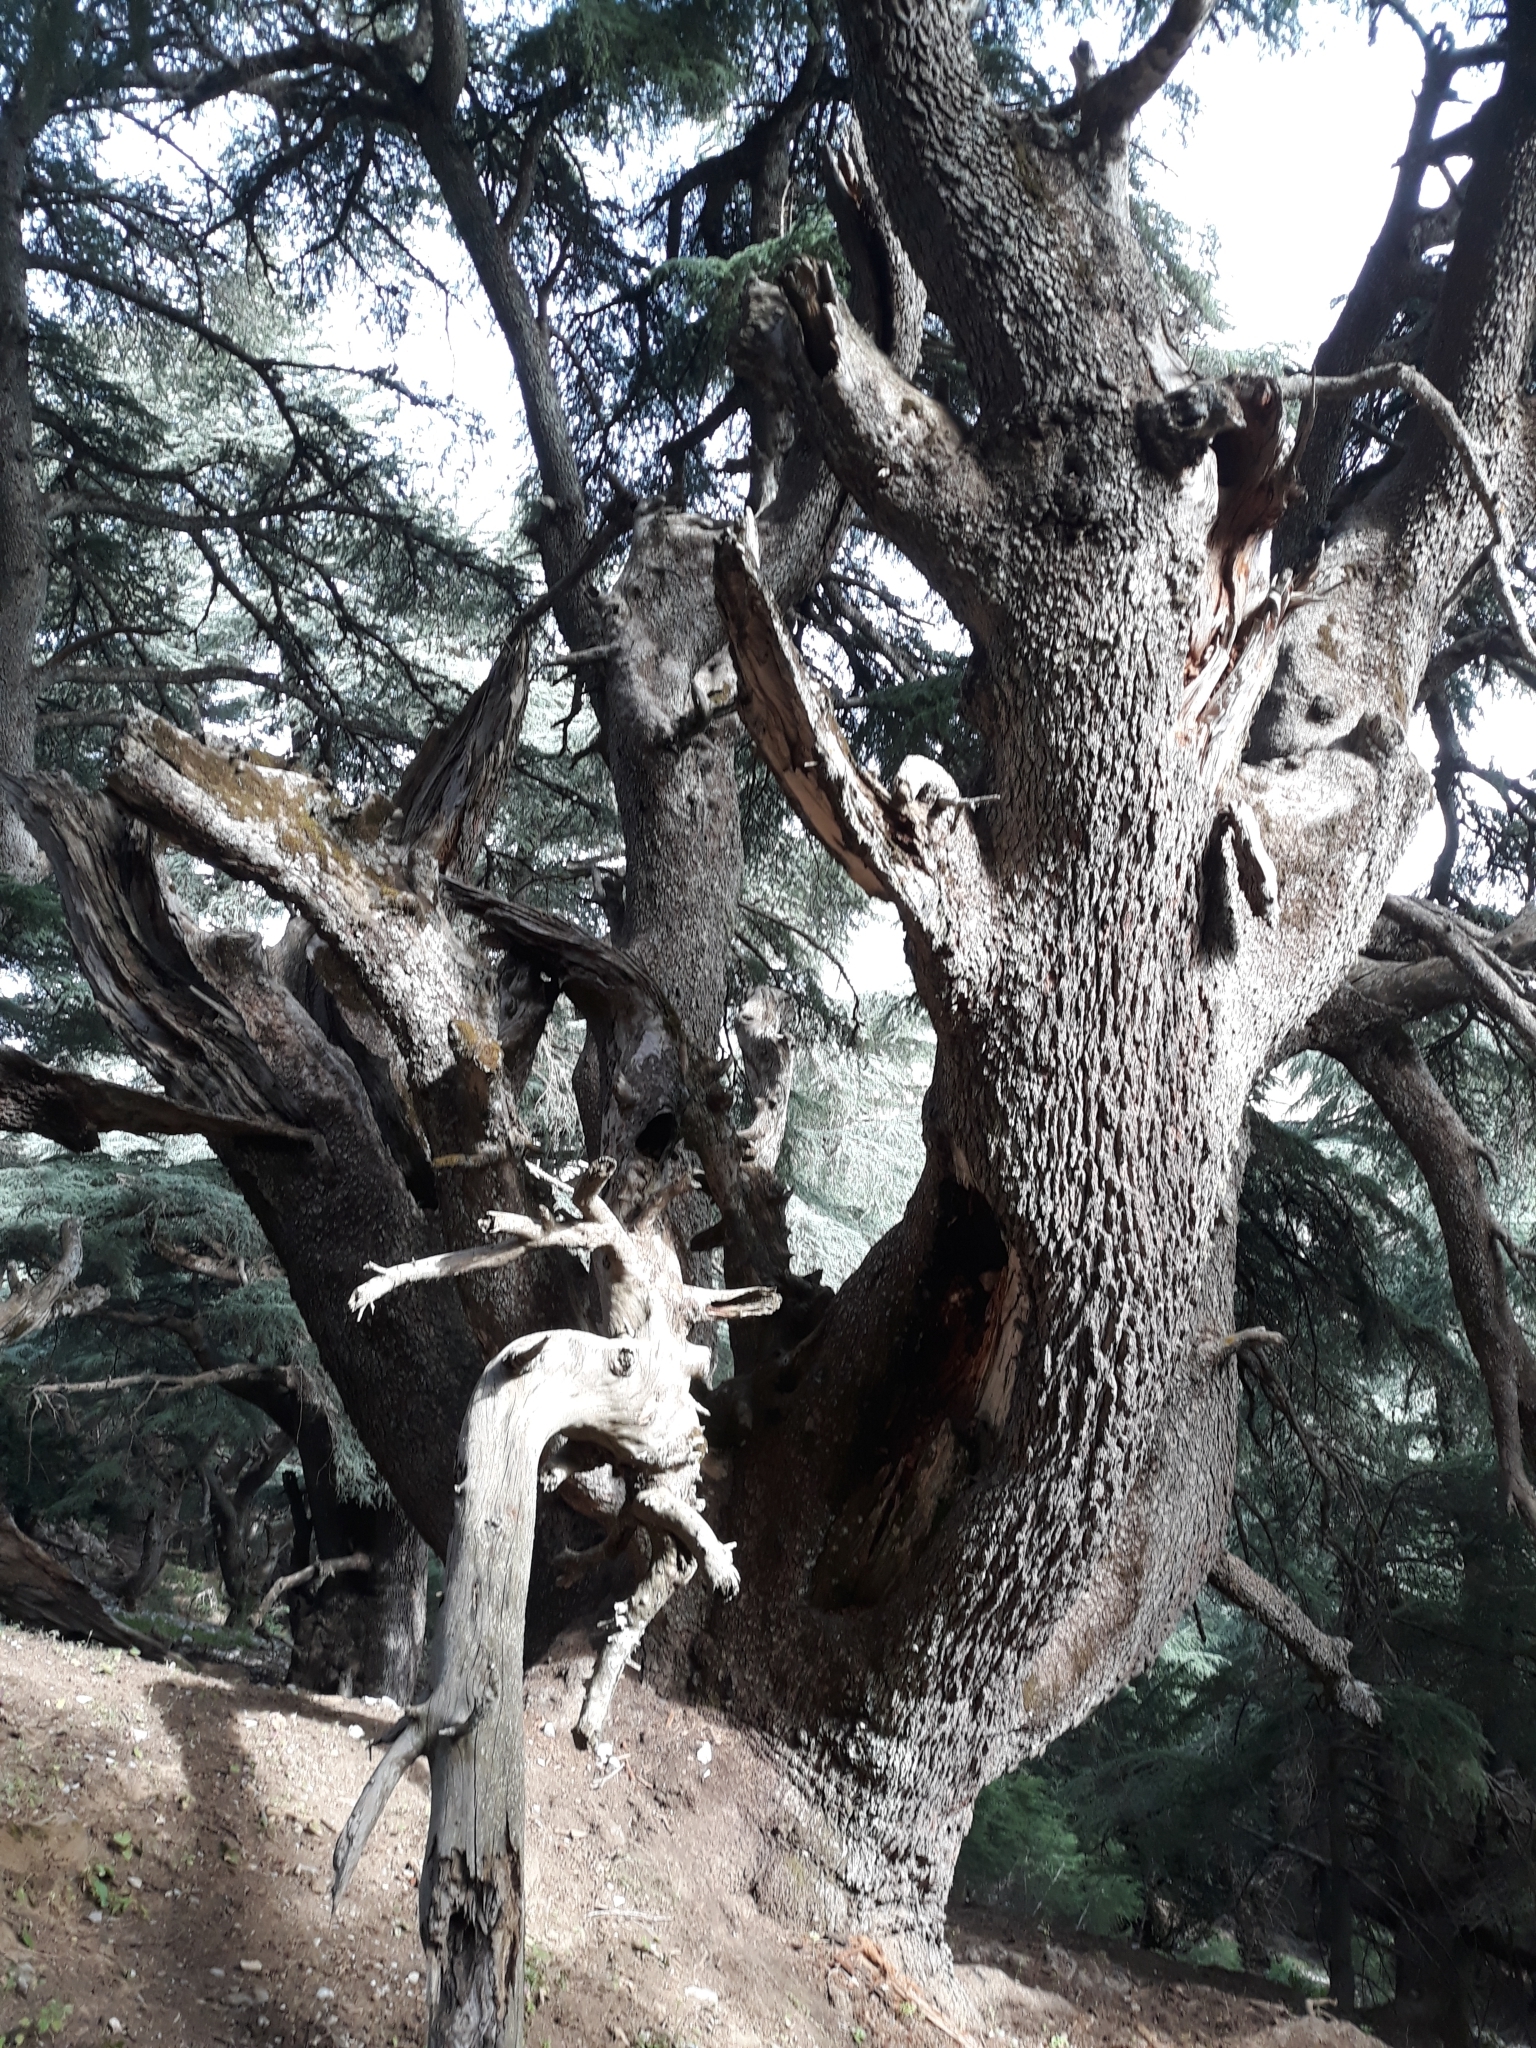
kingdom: Plantae
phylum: Tracheophyta
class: Pinopsida
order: Pinales
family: Pinaceae
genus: Cedrus
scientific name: Cedrus atlantica
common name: Atlas cedar
